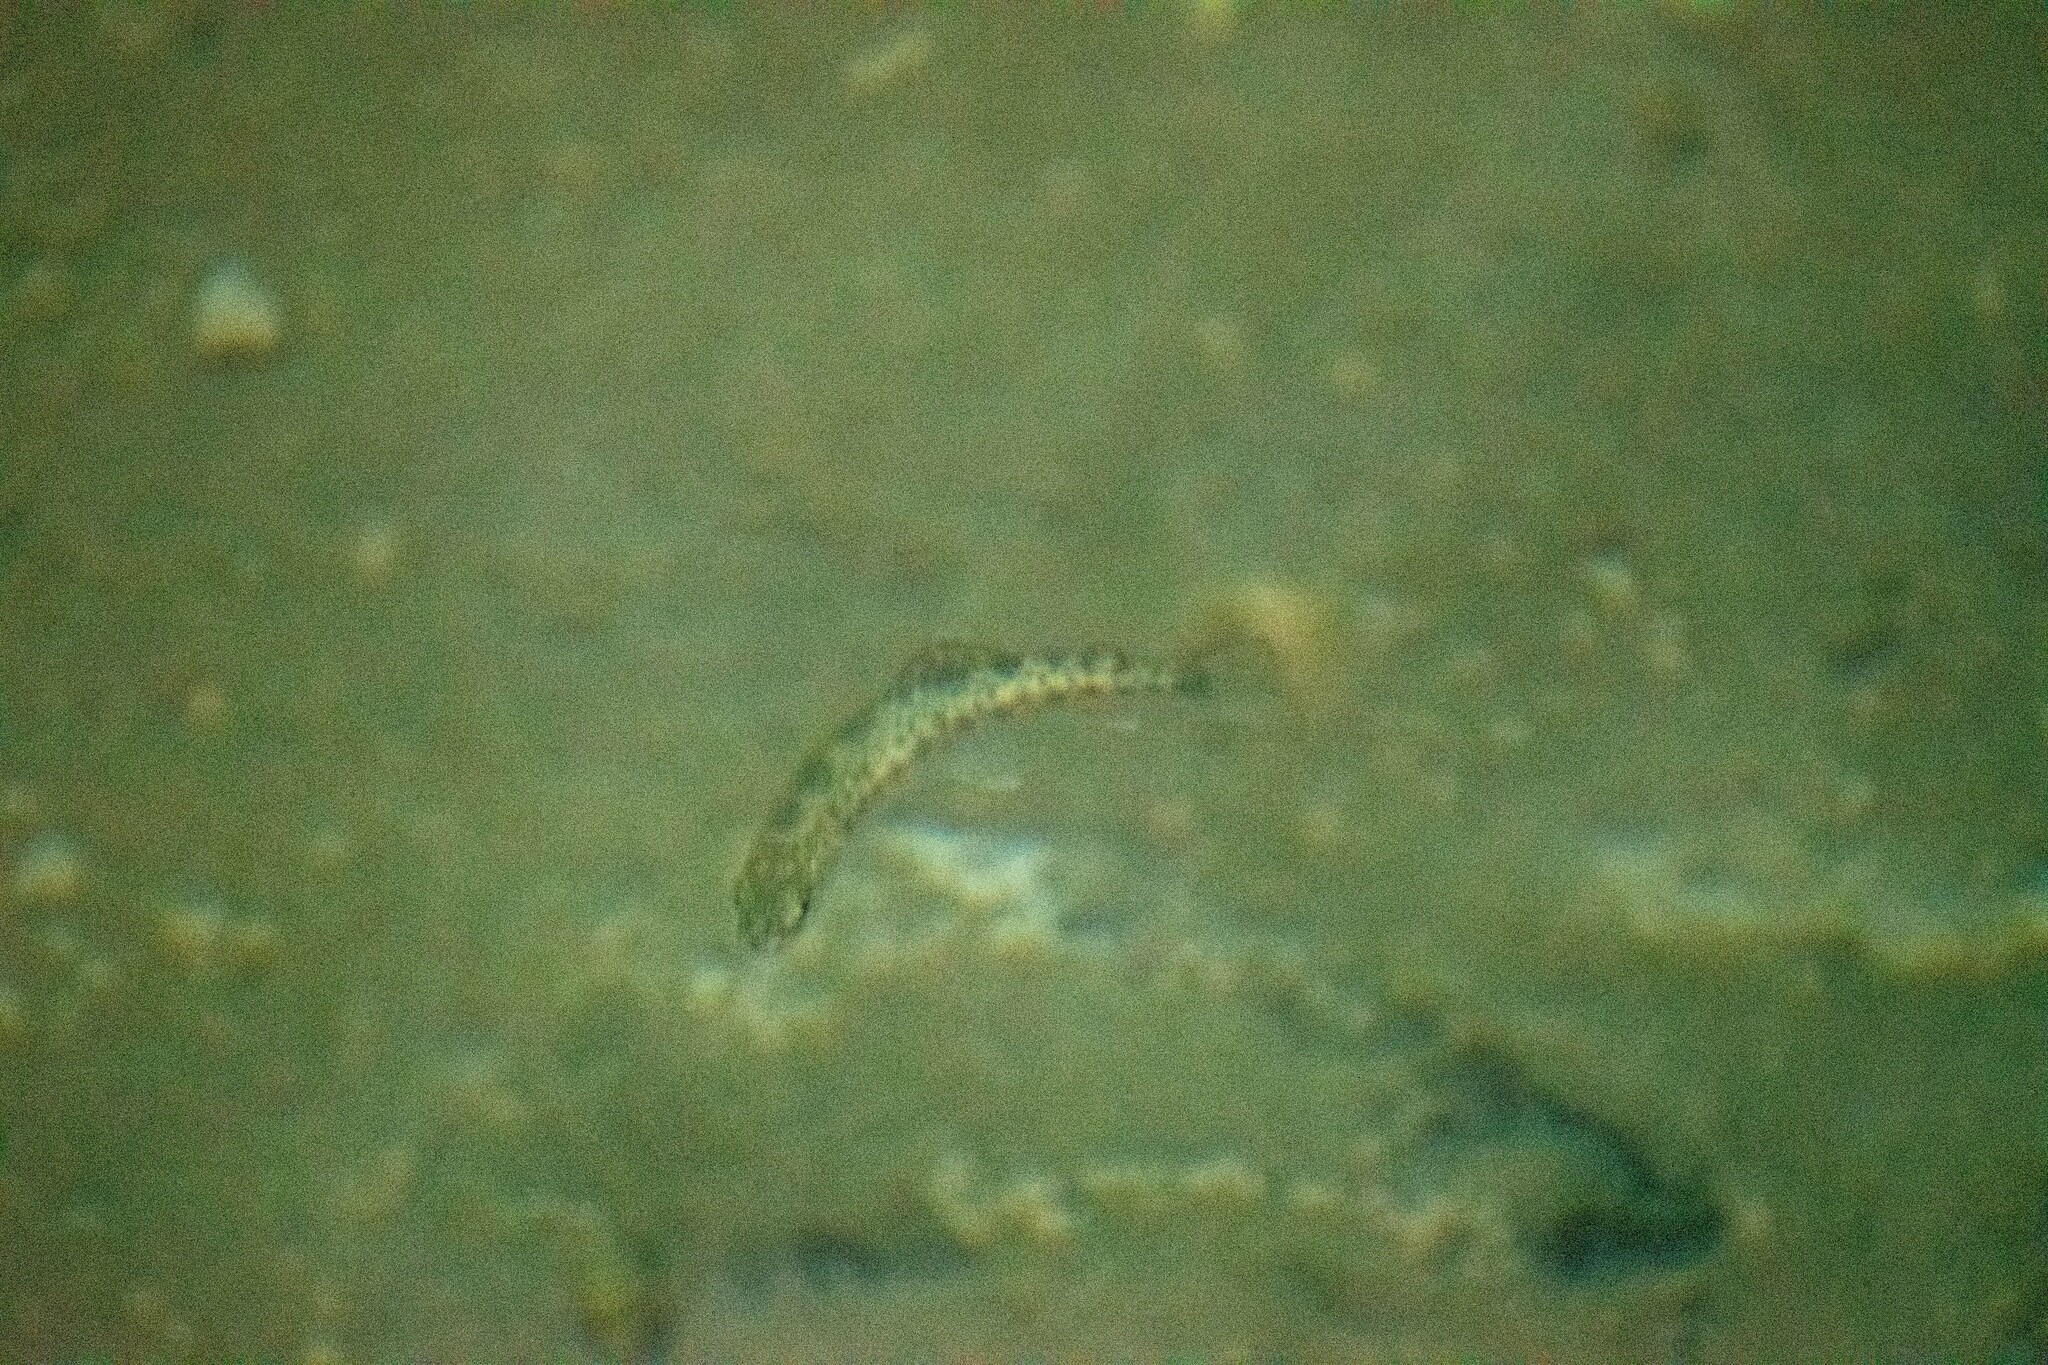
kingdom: Animalia
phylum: Chordata
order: Salmoniformes
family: Salmonidae
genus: Oncorhynchus
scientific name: Oncorhynchus mykiss
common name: Rainbow trout
